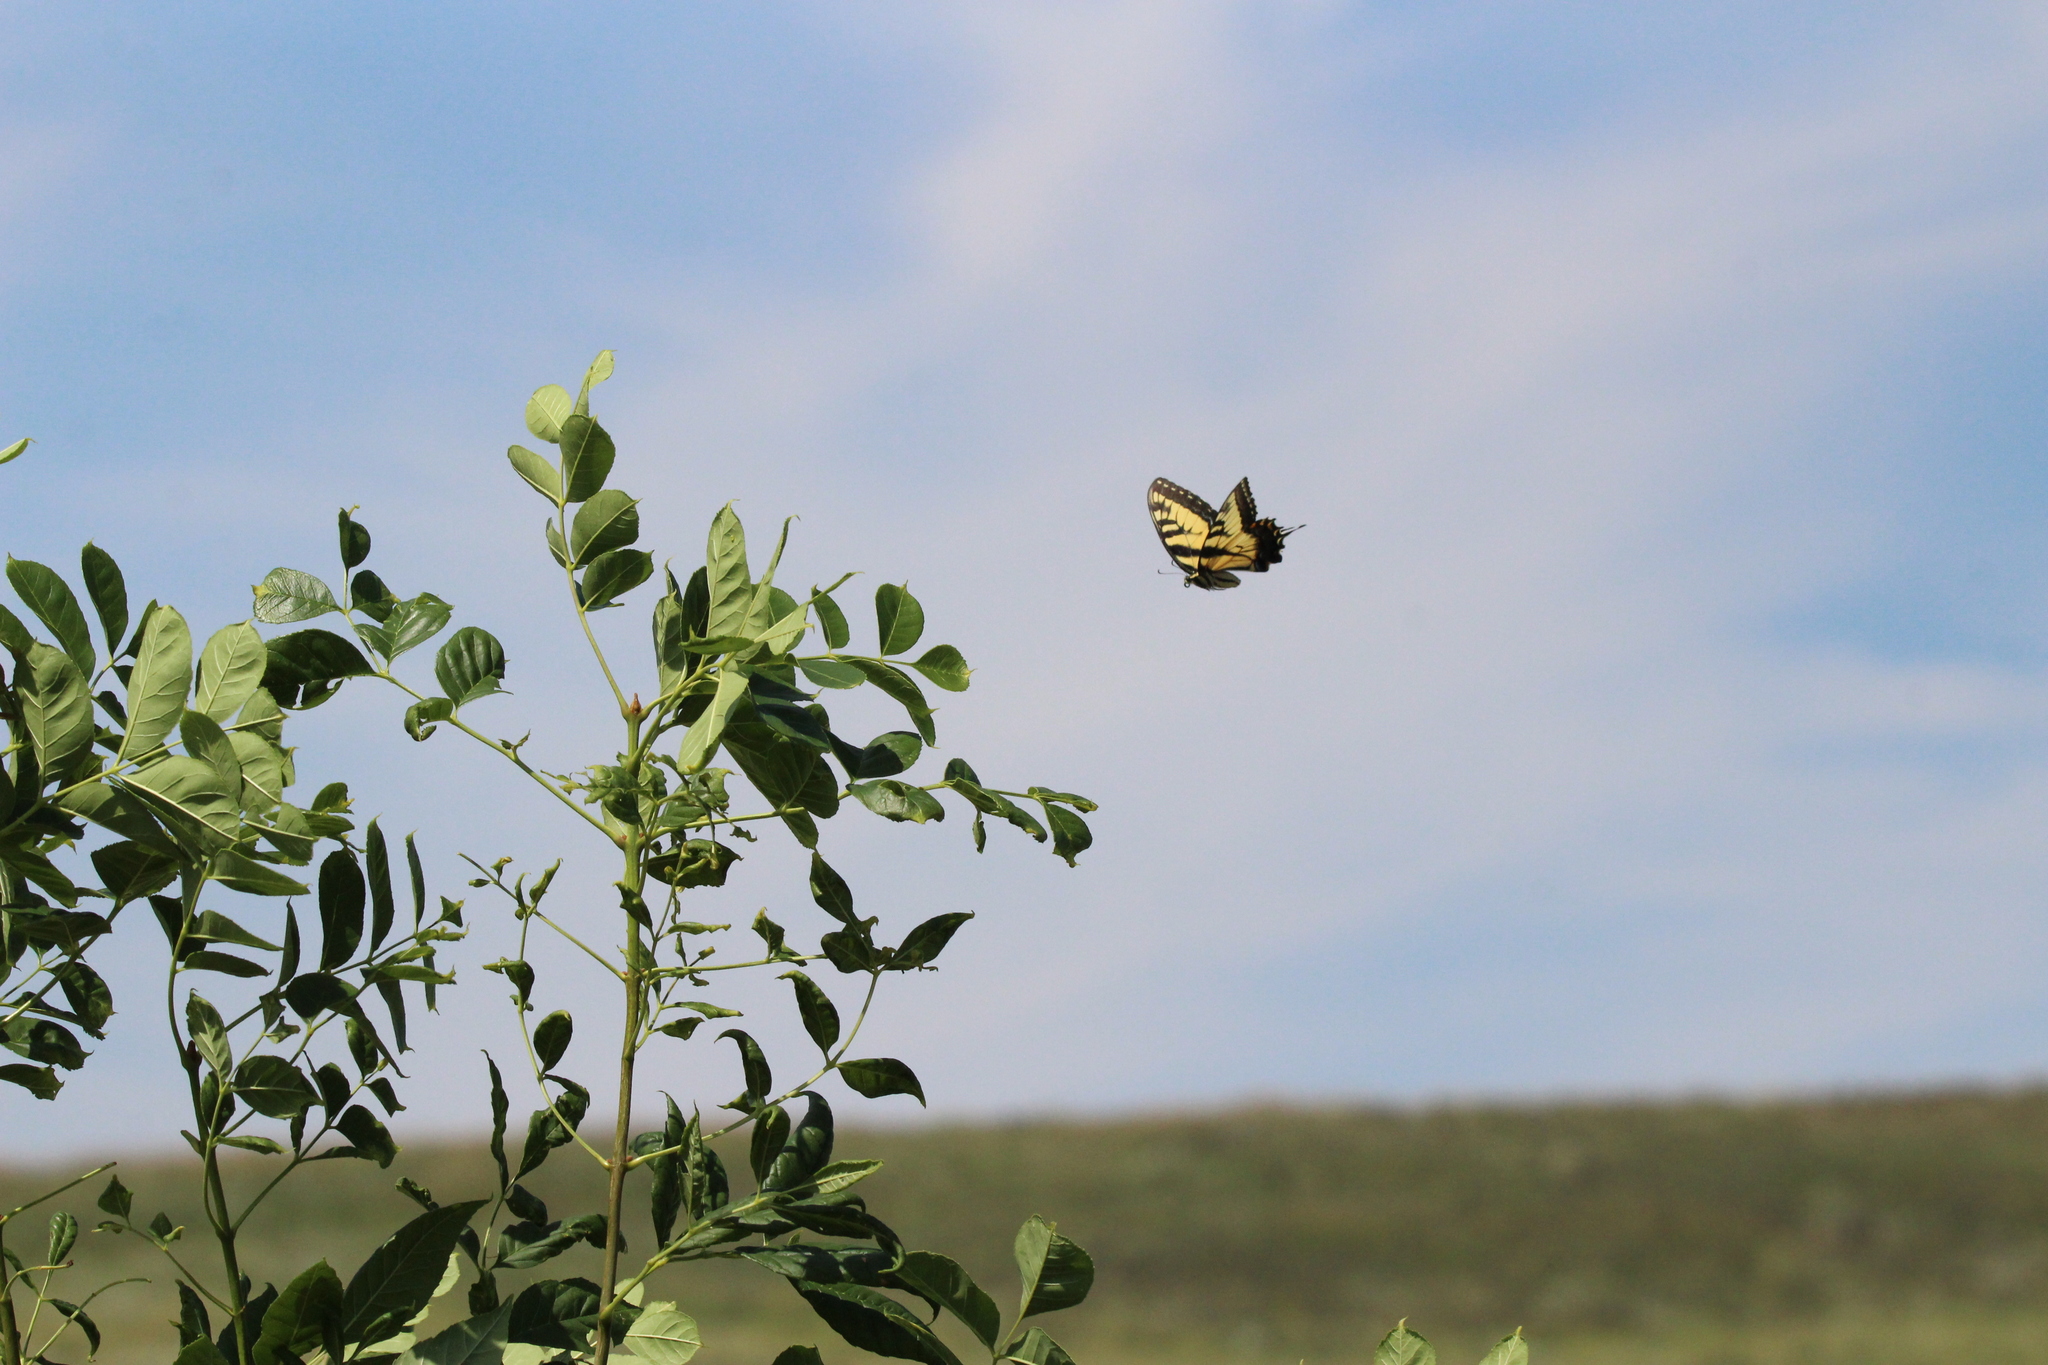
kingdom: Animalia
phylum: Arthropoda
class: Insecta
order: Lepidoptera
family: Papilionidae
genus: Papilio
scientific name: Papilio glaucus
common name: Tiger swallowtail
